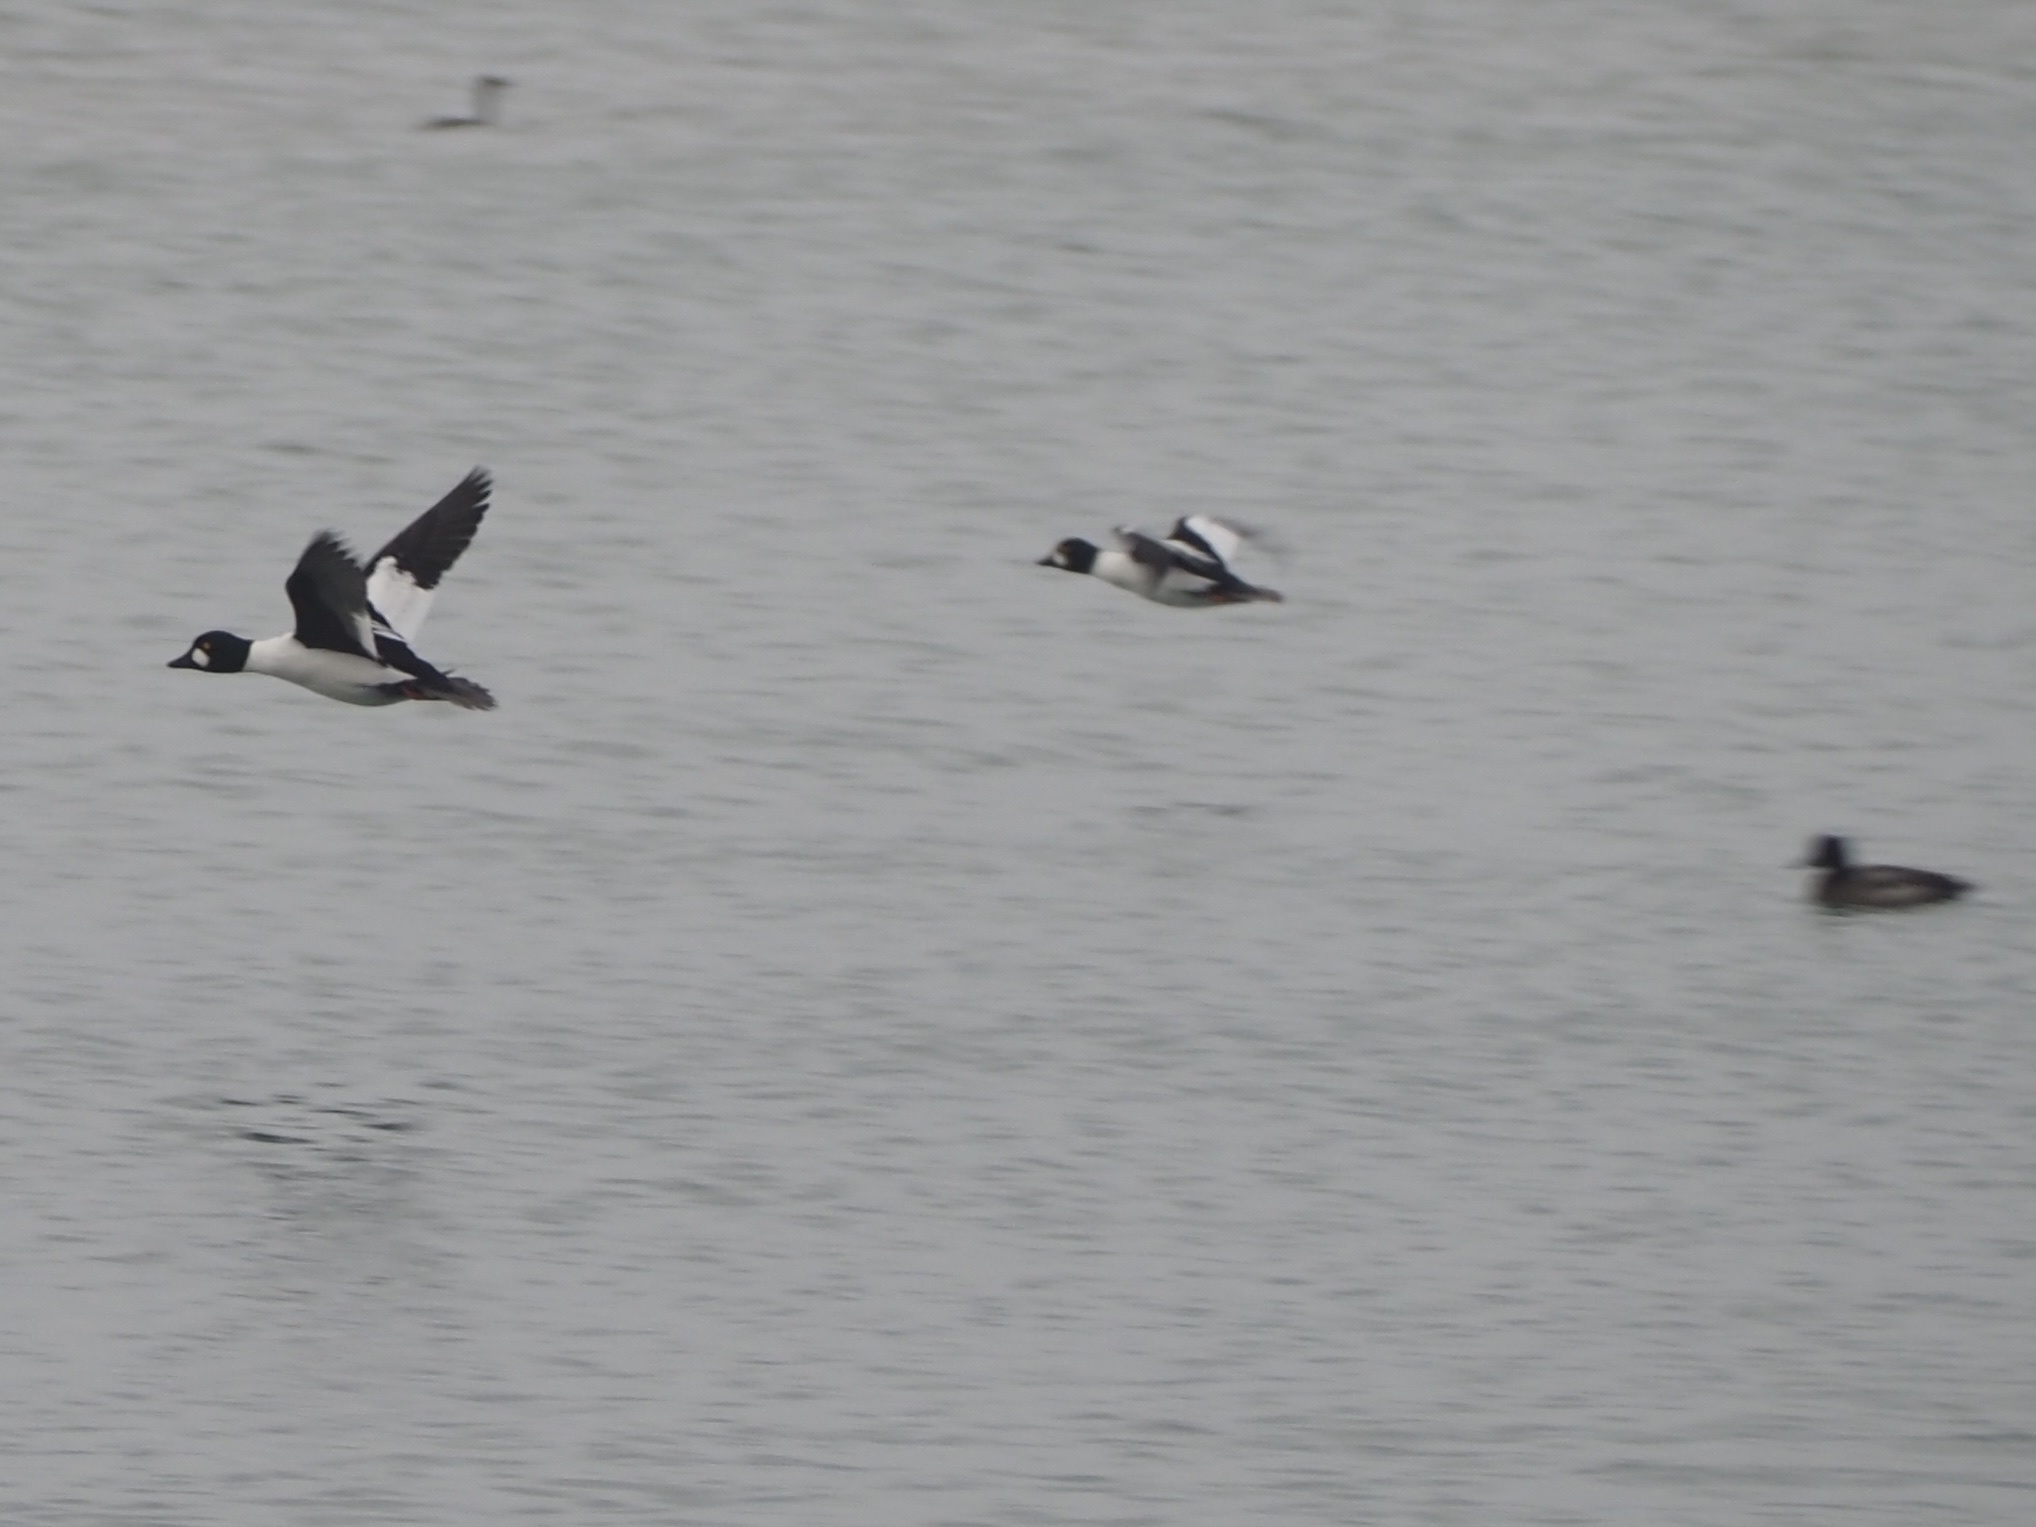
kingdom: Animalia
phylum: Chordata
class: Aves
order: Anseriformes
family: Anatidae
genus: Bucephala
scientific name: Bucephala clangula
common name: Common goldeneye
